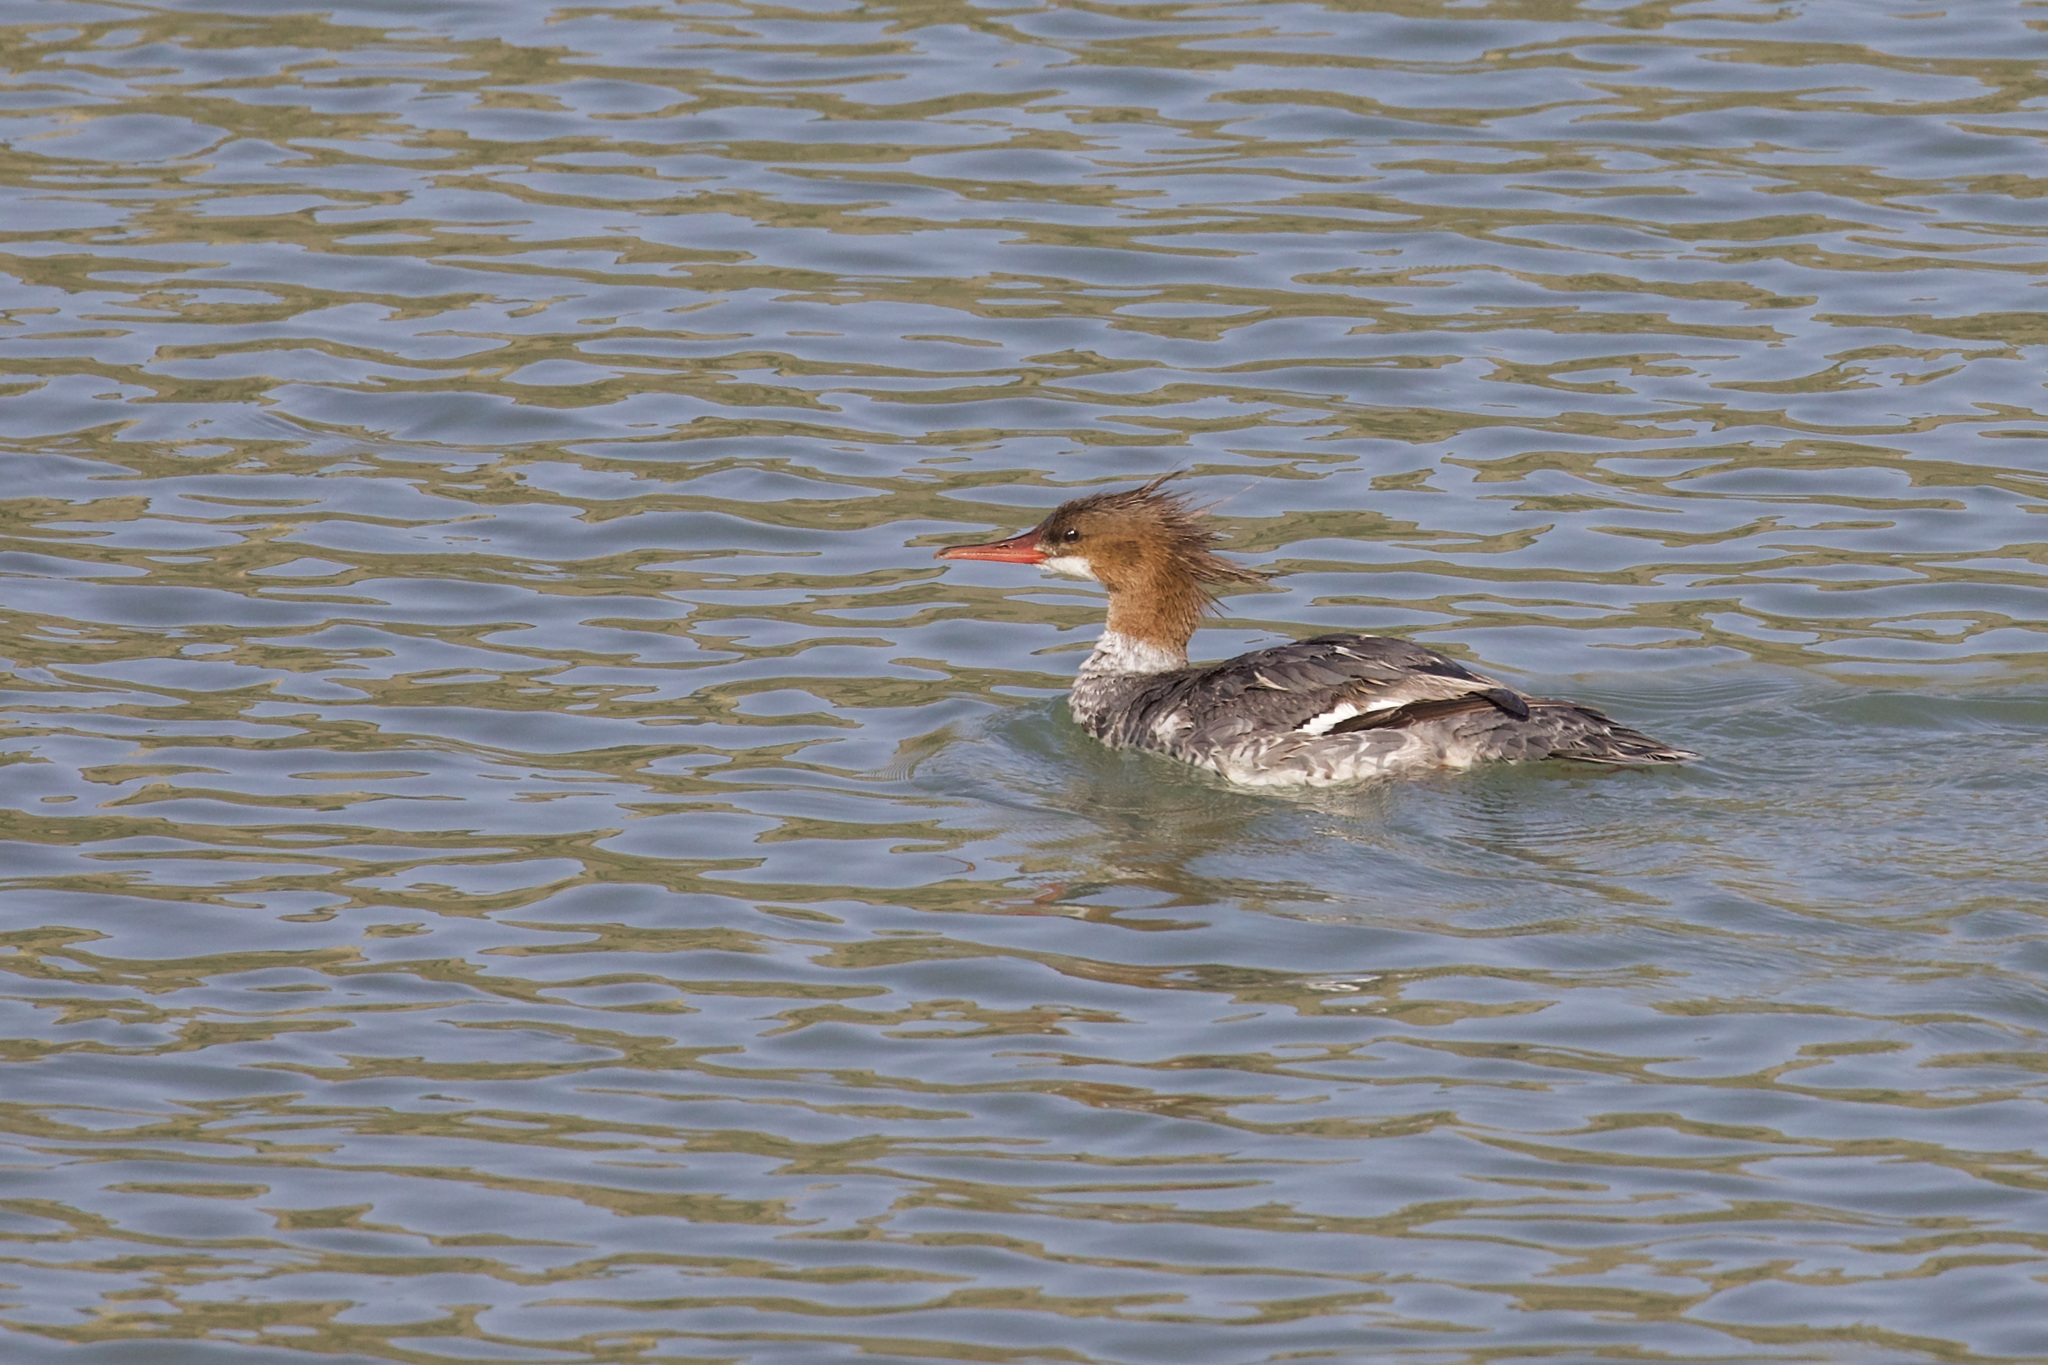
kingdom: Animalia
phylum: Chordata
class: Aves
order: Anseriformes
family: Anatidae
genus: Mergus
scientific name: Mergus merganser
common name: Common merganser
